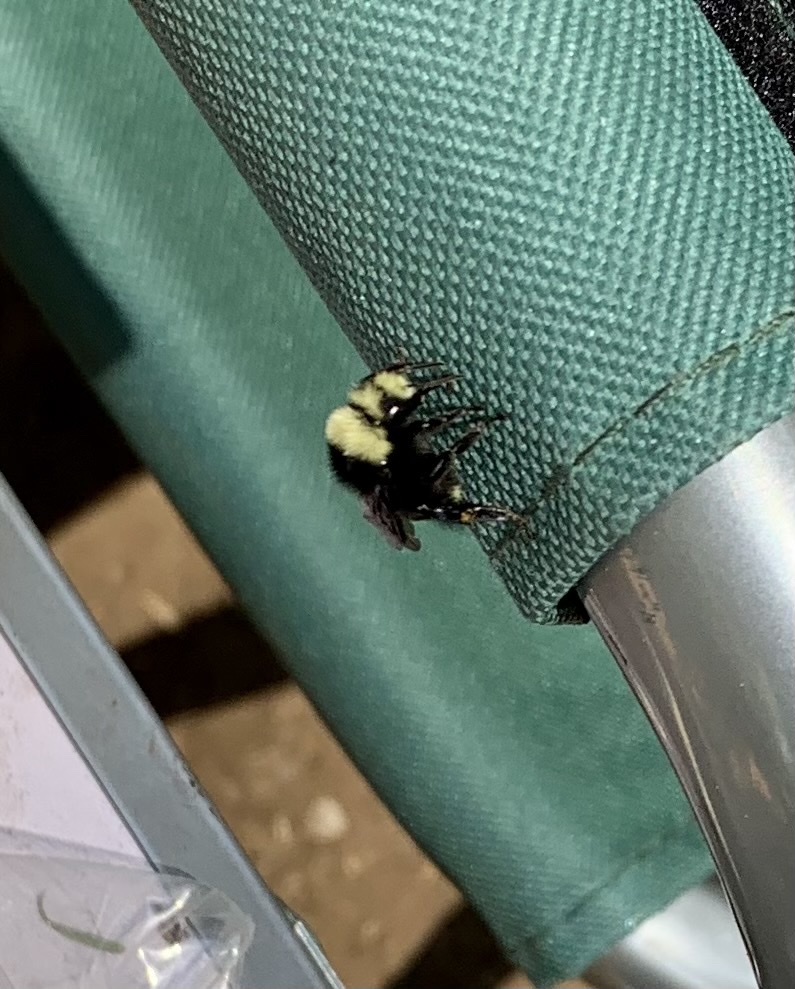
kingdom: Animalia
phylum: Arthropoda
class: Insecta
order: Hymenoptera
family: Apidae
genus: Bombus
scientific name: Bombus vosnesenskii
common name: Vosnesensky bumble bee
